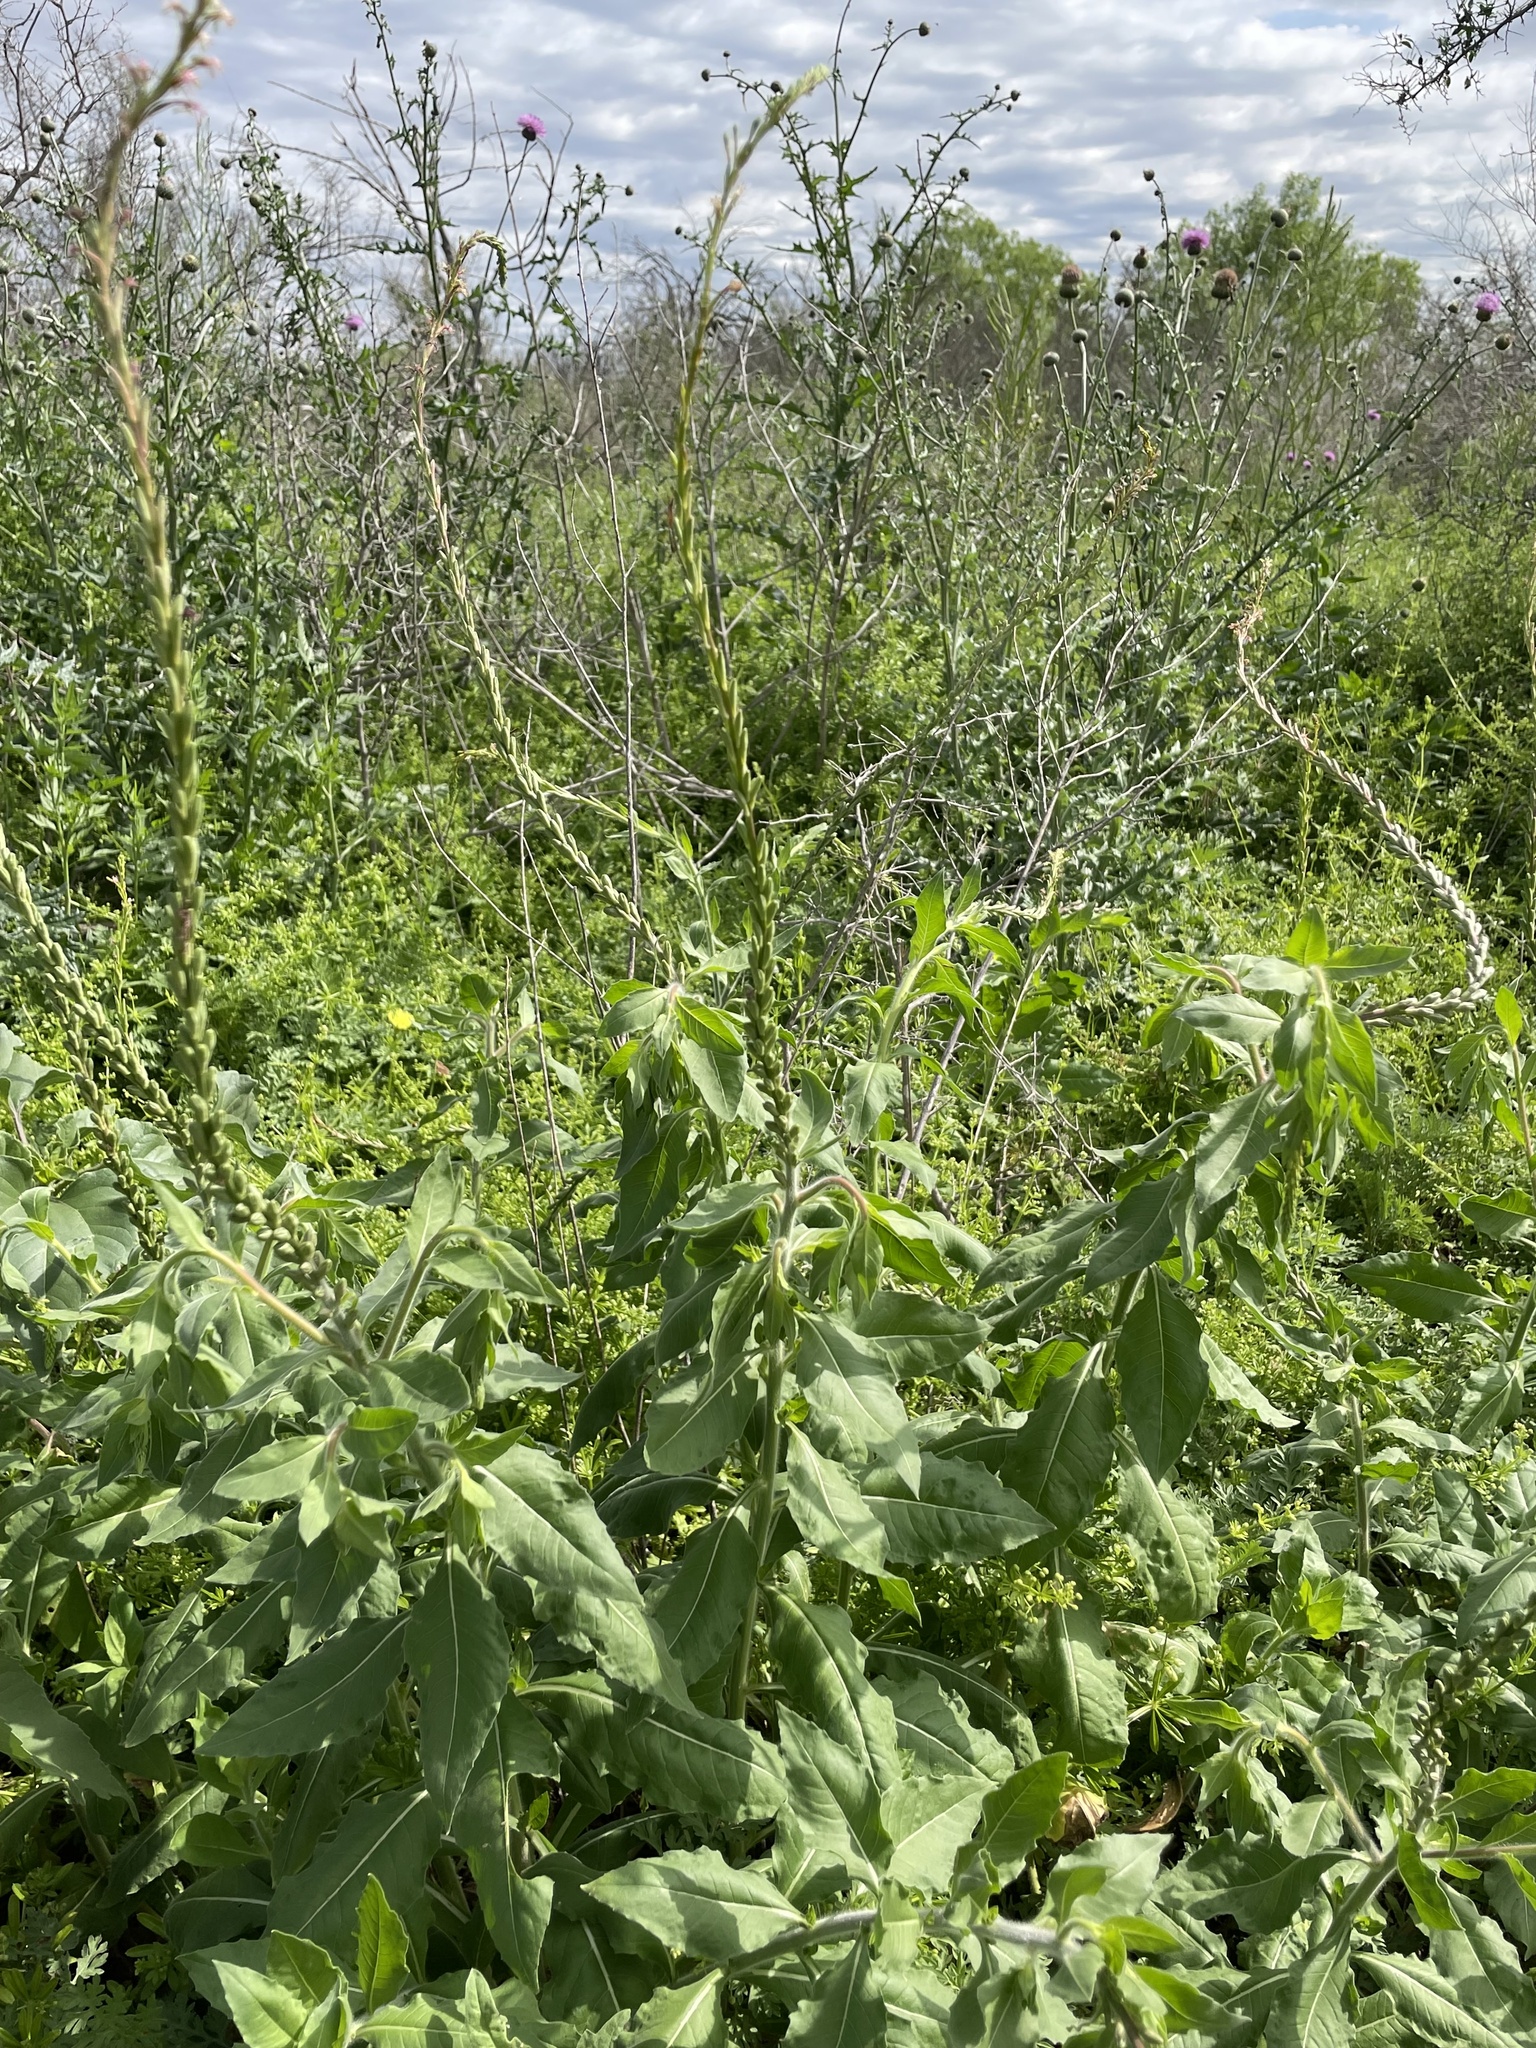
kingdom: Plantae
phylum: Tracheophyta
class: Magnoliopsida
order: Myrtales
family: Onagraceae
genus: Oenothera
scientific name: Oenothera curtiflora
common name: Velvetweed
